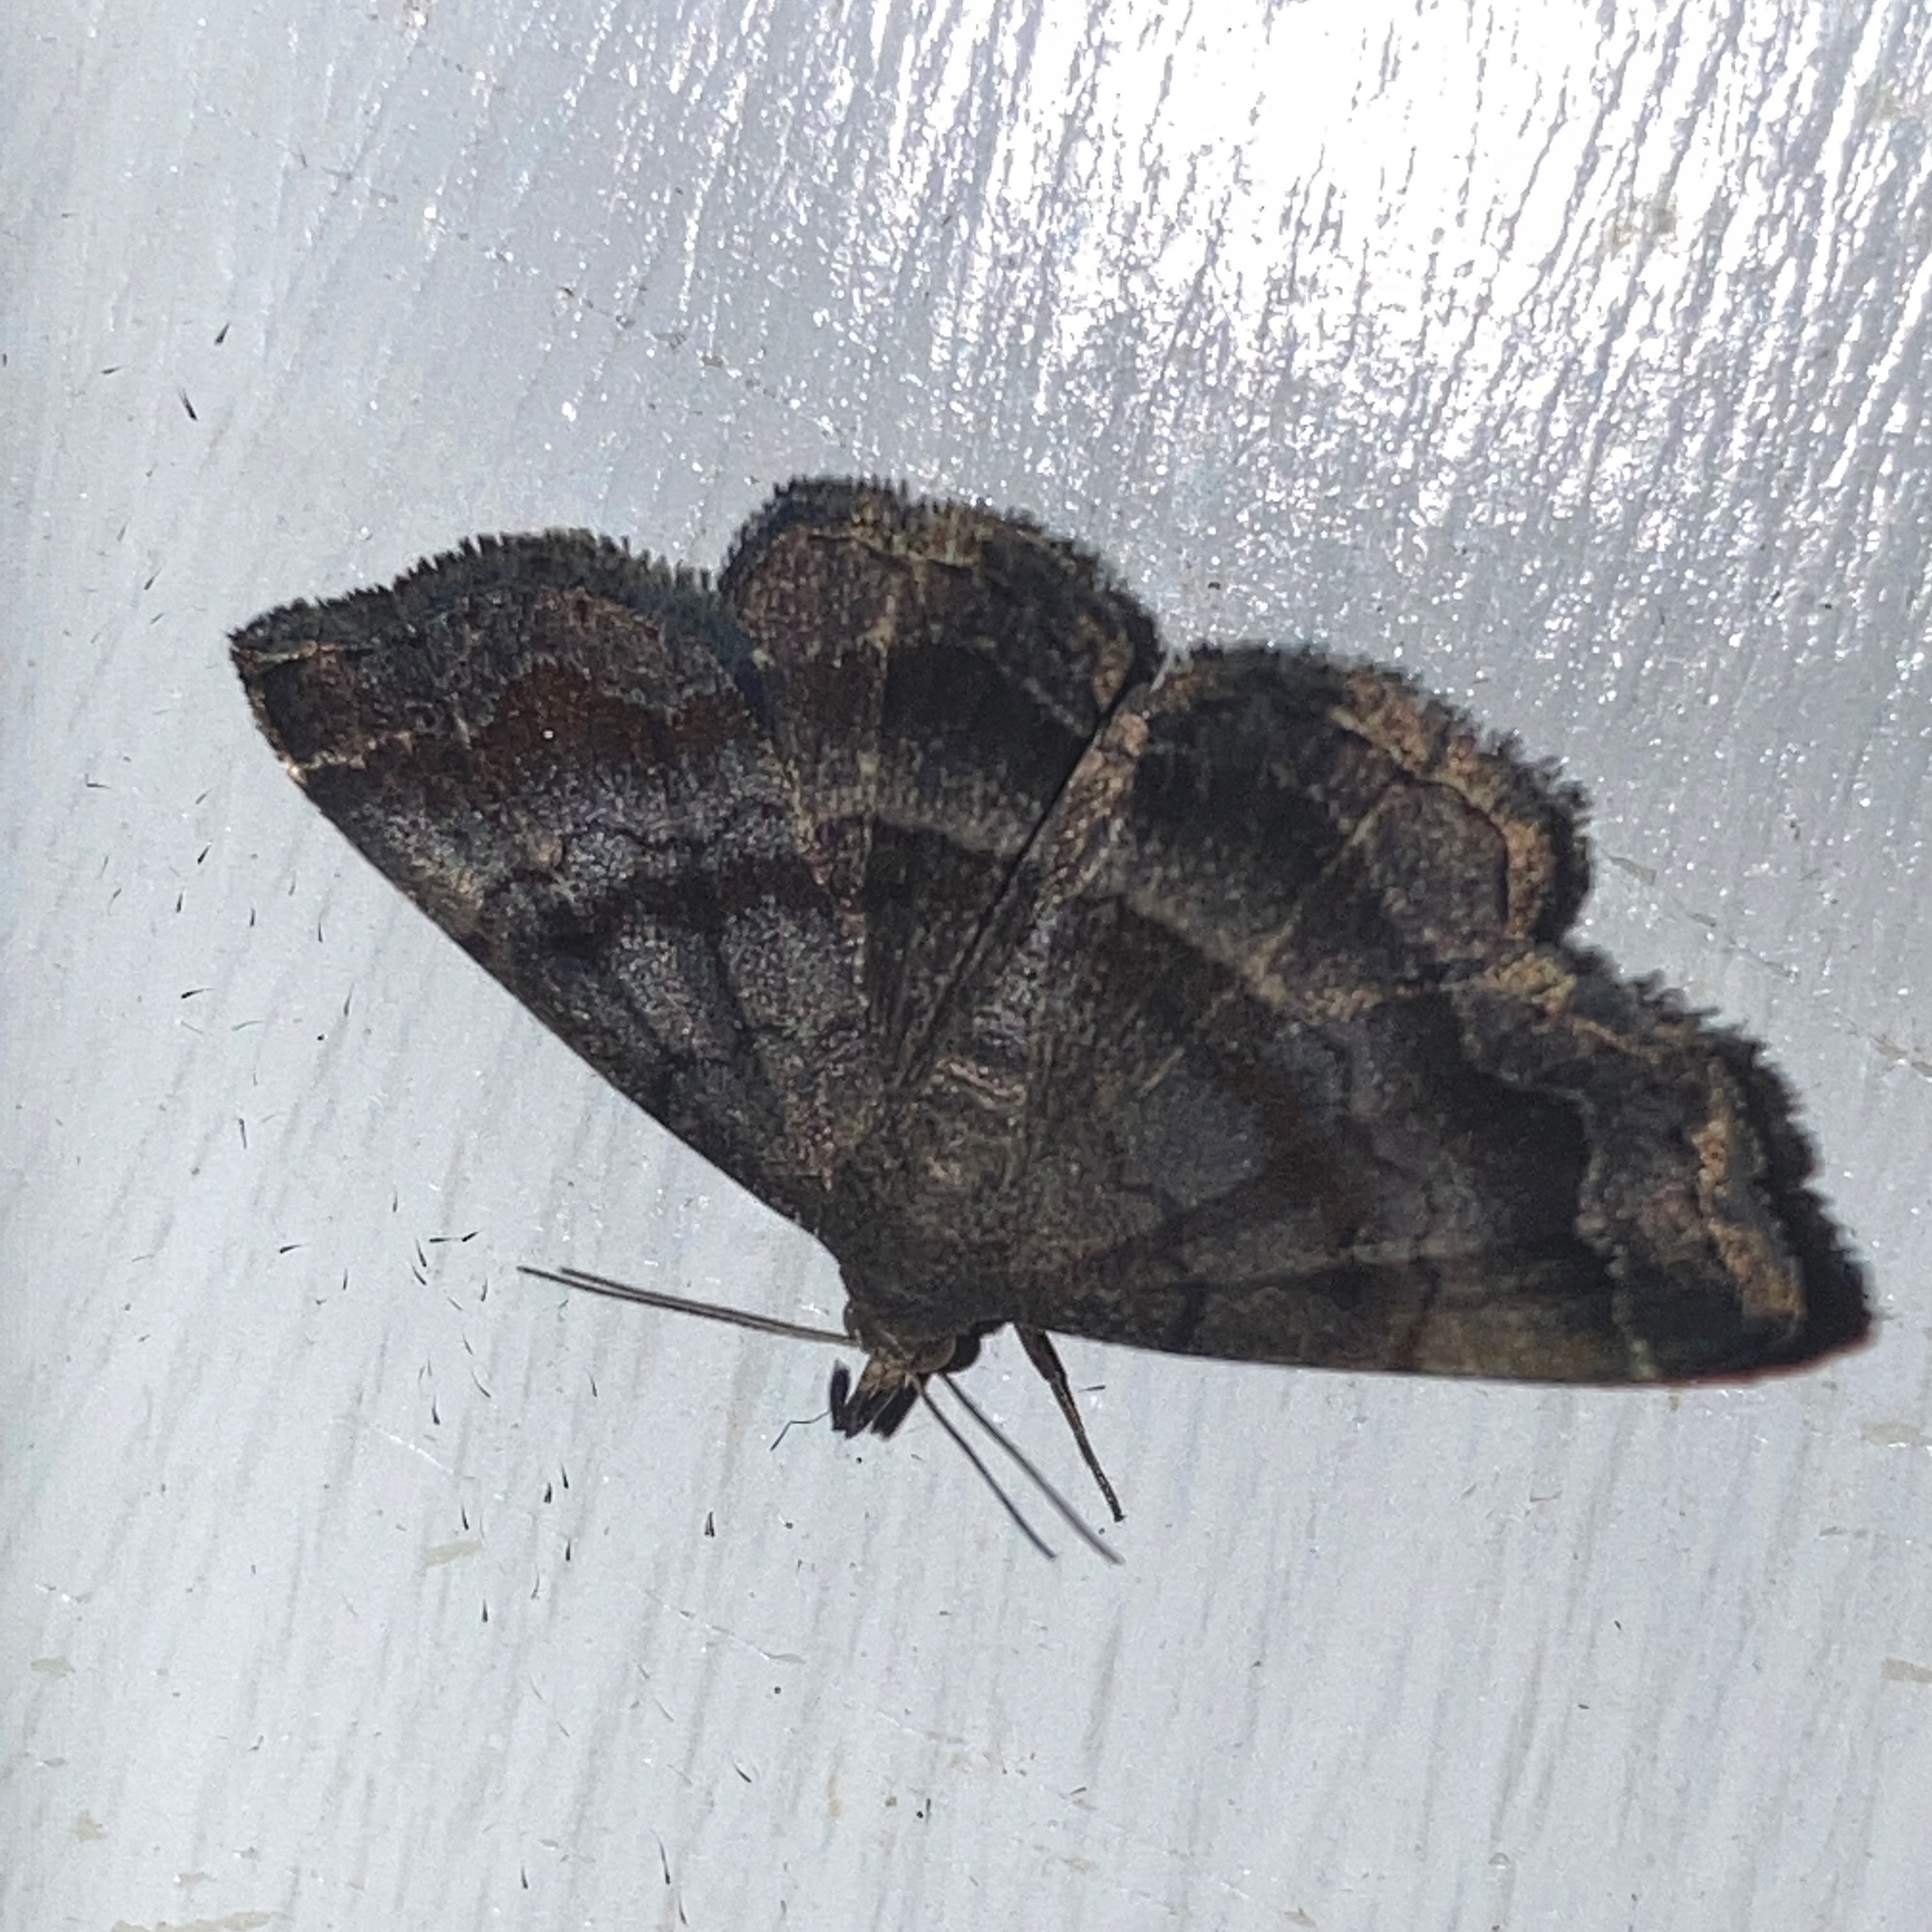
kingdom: Animalia
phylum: Arthropoda
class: Insecta
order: Lepidoptera
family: Erebidae
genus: Phalaenostola
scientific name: Phalaenostola larentioides
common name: Black-banded owlet
